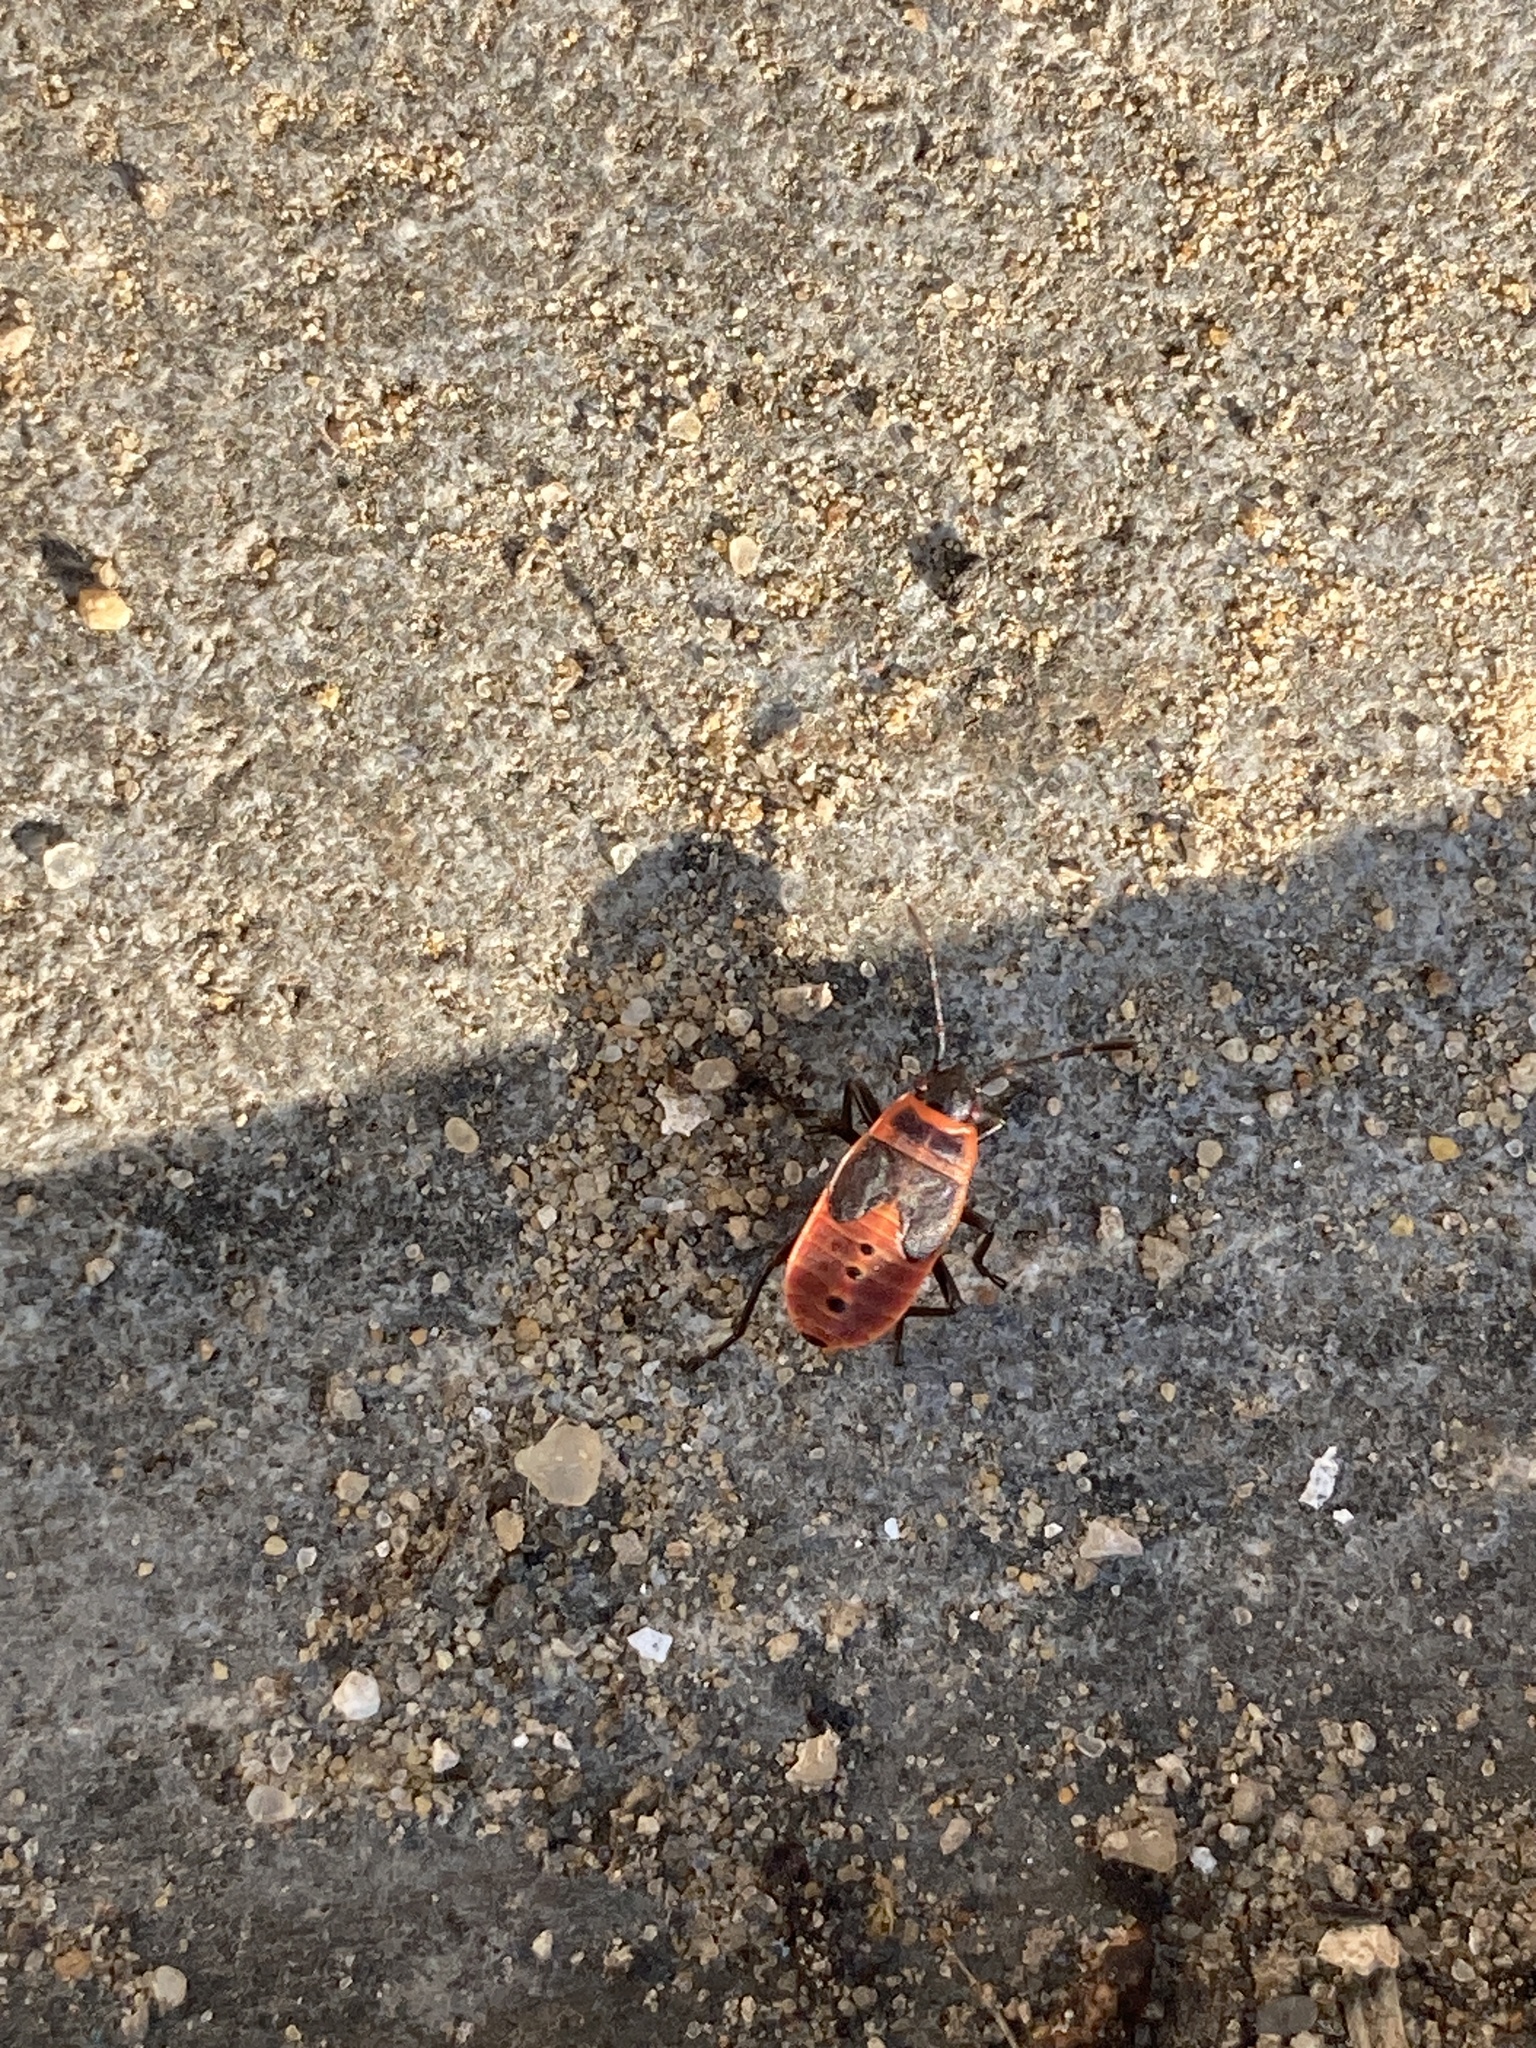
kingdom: Animalia
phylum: Arthropoda
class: Insecta
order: Hemiptera
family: Pyrrhocoridae
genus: Pyrrhocoris
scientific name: Pyrrhocoris apterus
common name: Firebug
